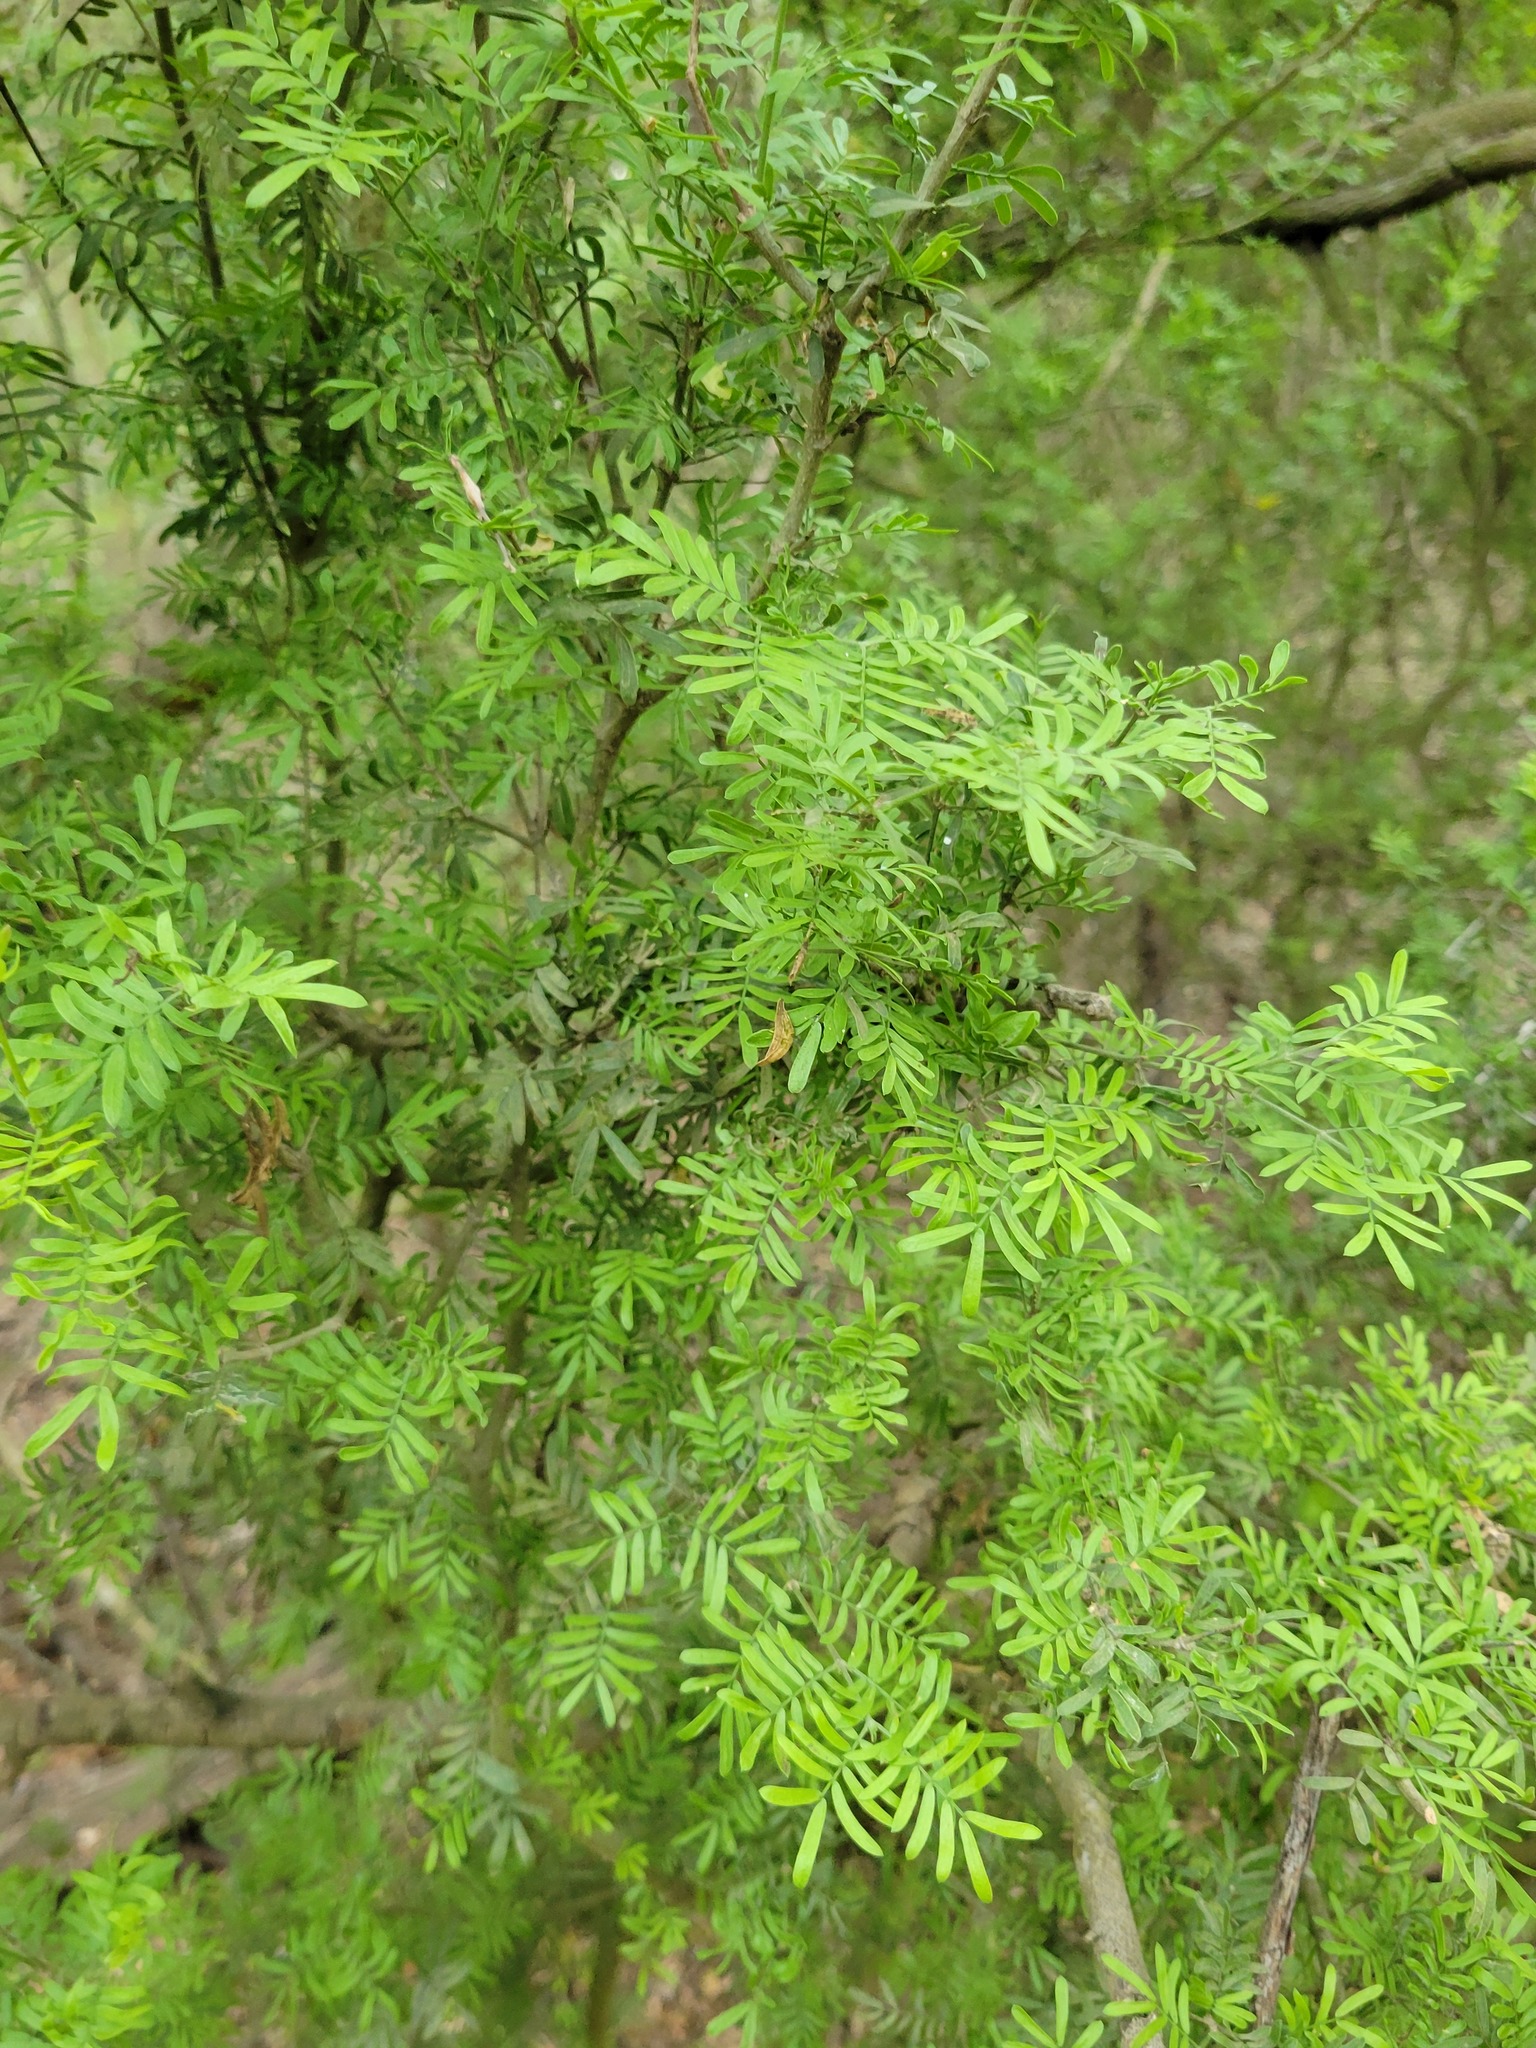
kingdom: Plantae
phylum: Tracheophyta
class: Magnoliopsida
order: Zygophyllales
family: Zygophyllaceae
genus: Porlieria
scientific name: Porlieria angustifolia
